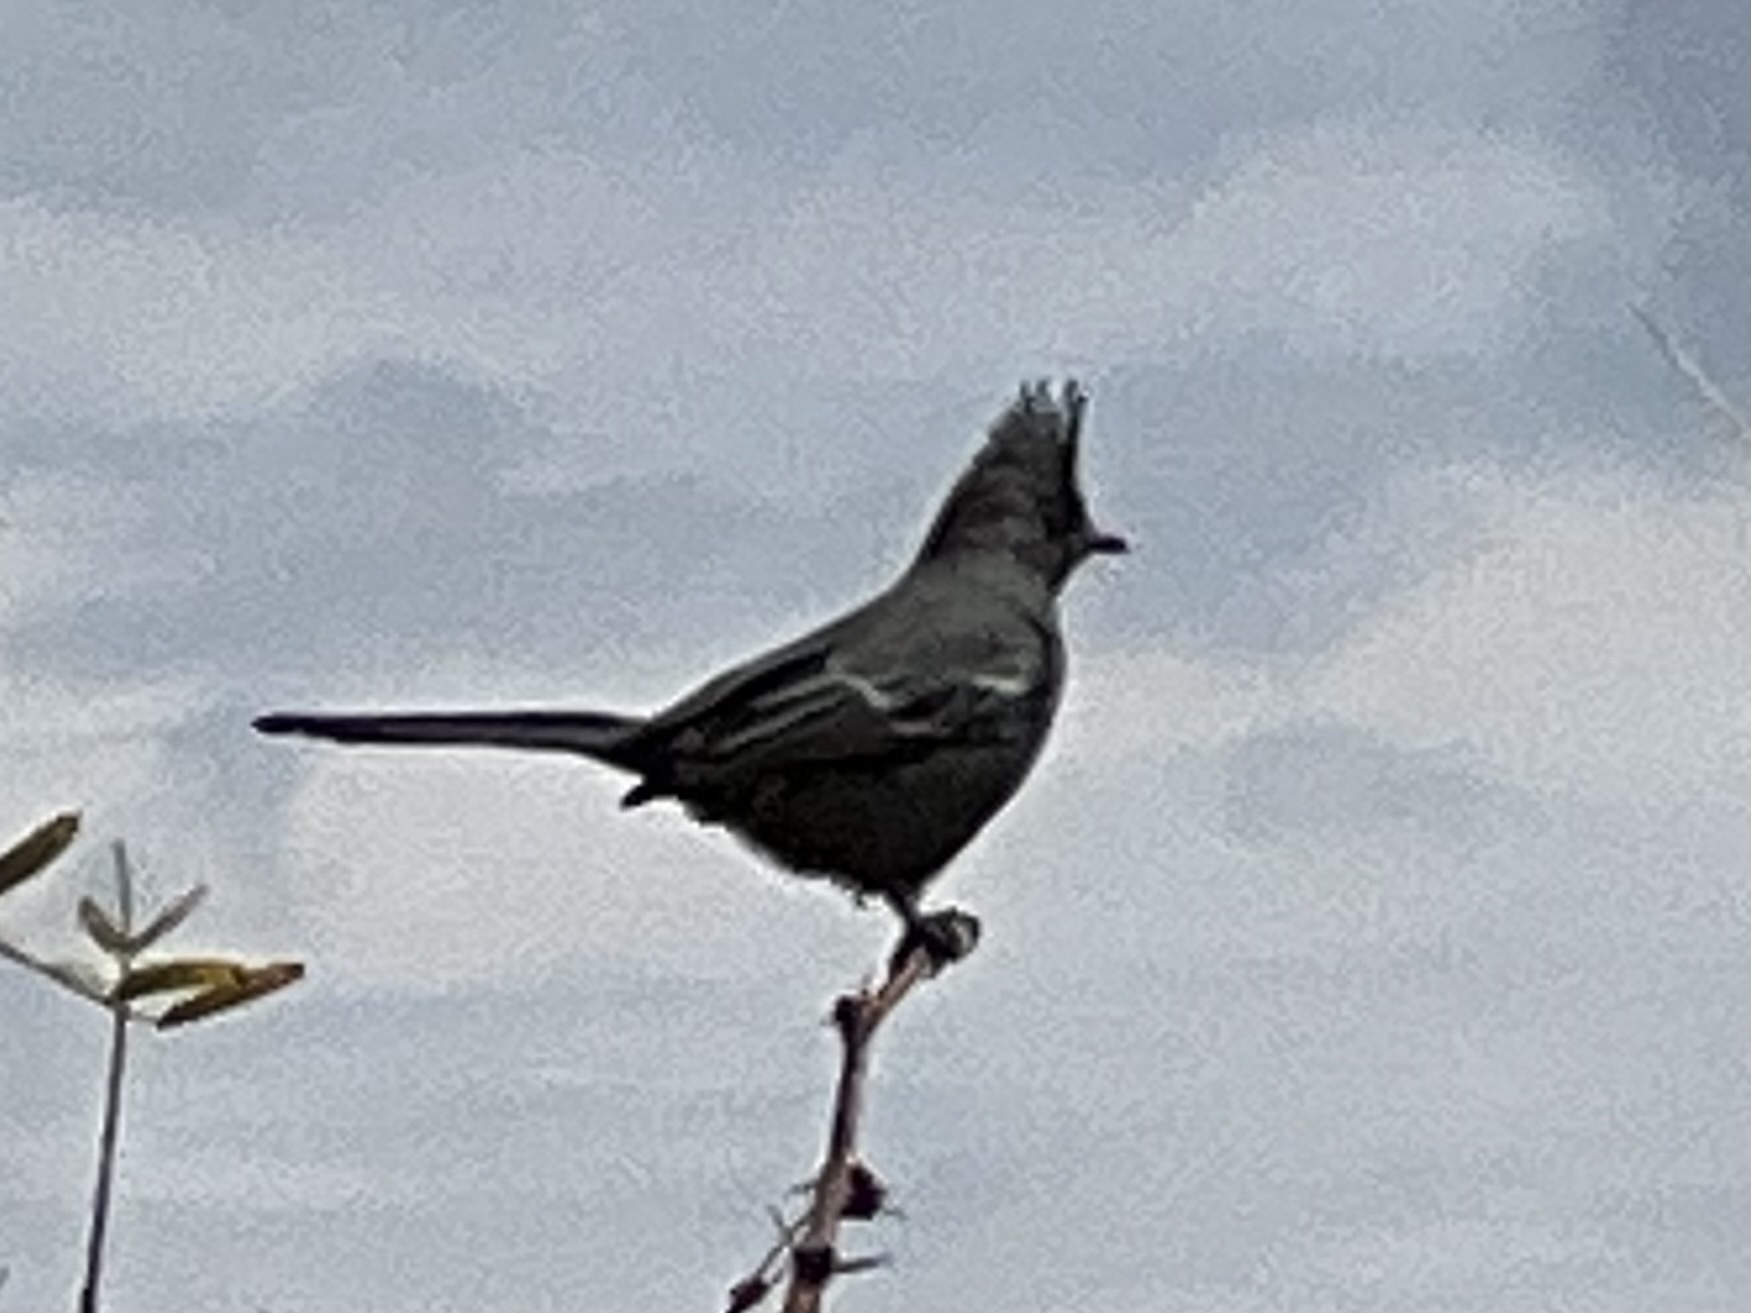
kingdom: Animalia
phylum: Chordata
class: Aves
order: Passeriformes
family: Ptilogonatidae
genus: Phainopepla
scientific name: Phainopepla nitens
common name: Phainopepla
